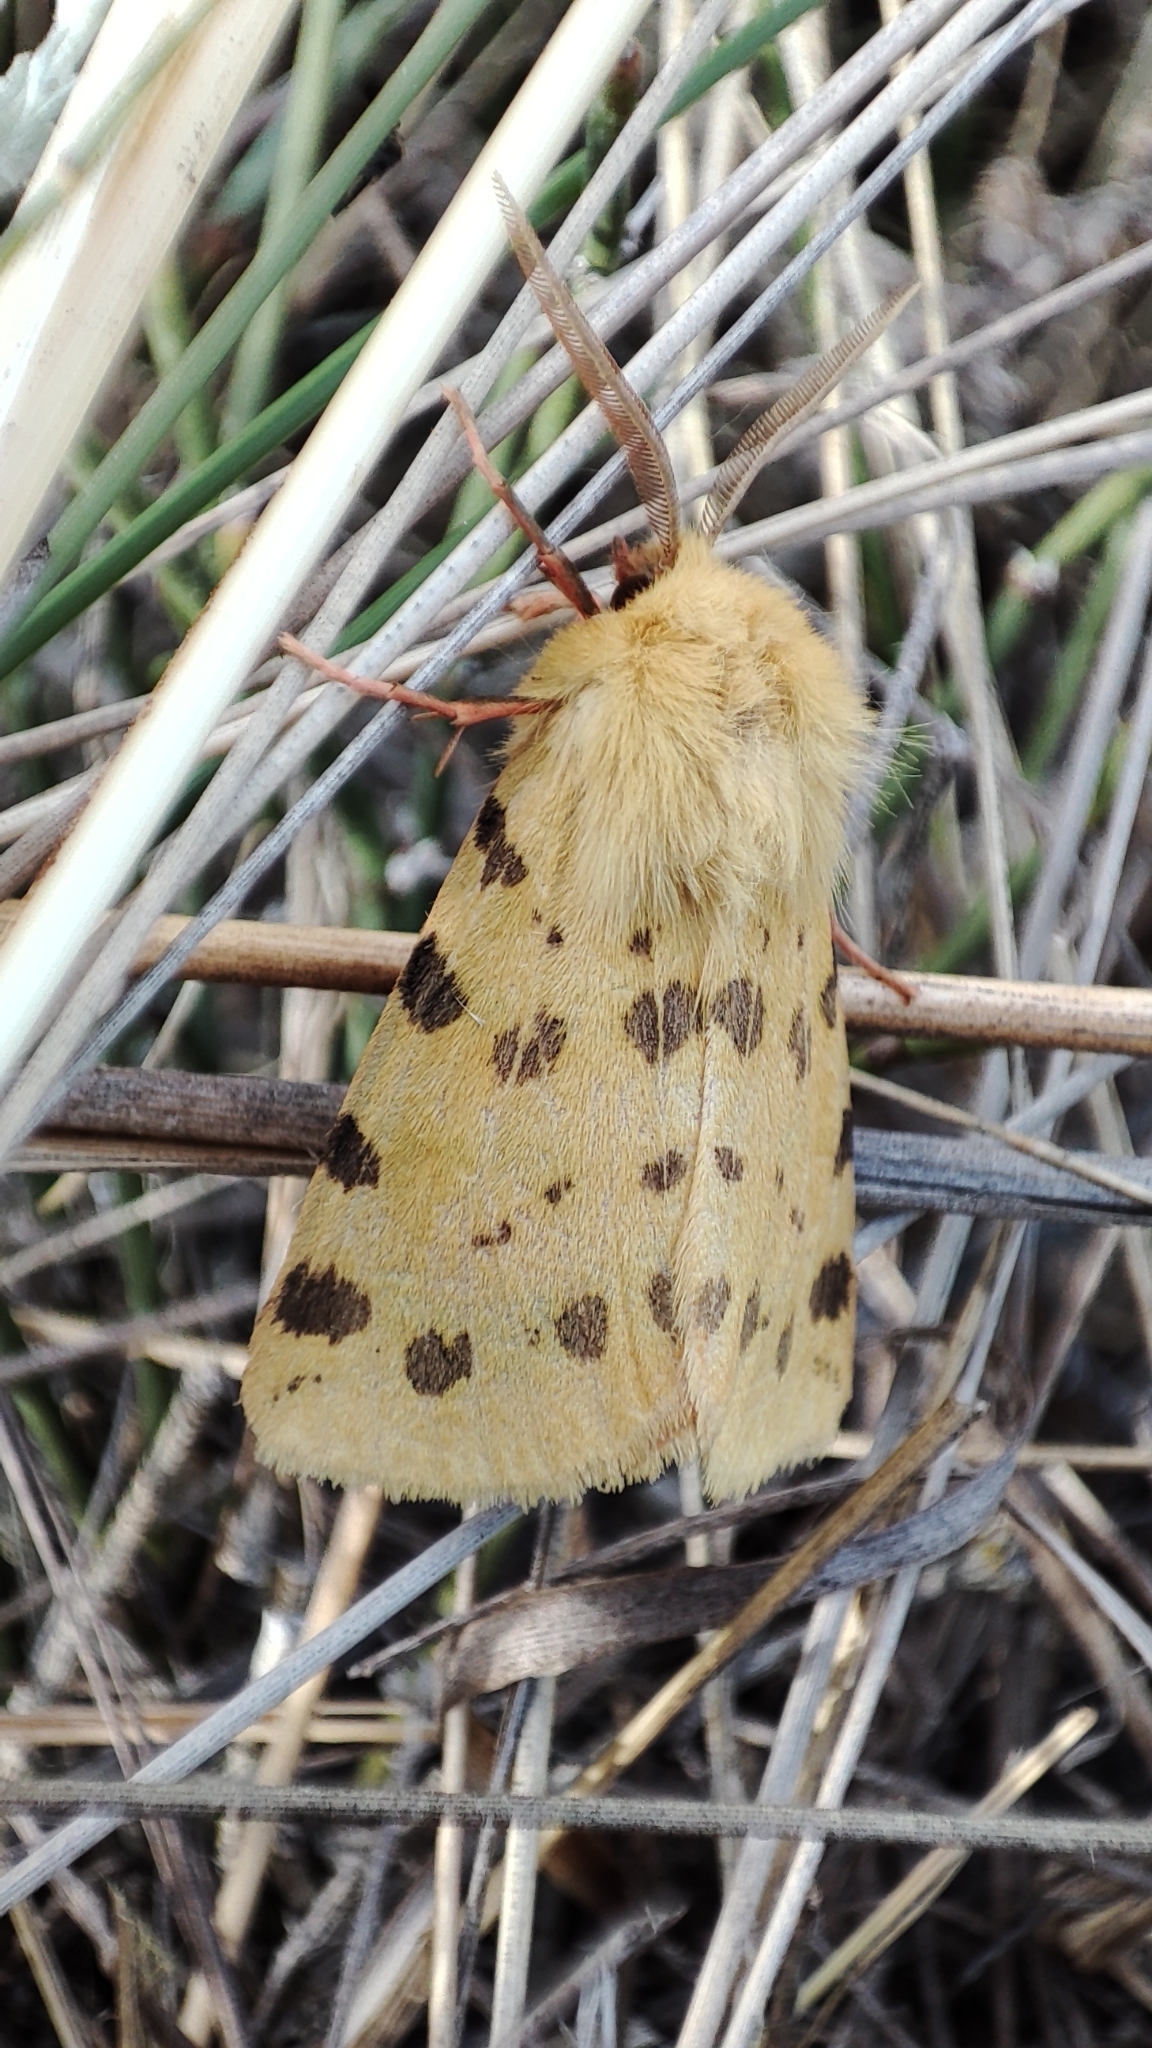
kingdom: Animalia
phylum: Arthropoda
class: Insecta
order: Lepidoptera
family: Erebidae
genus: Rhyparia
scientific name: Rhyparia purpurata
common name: Purple tiger
